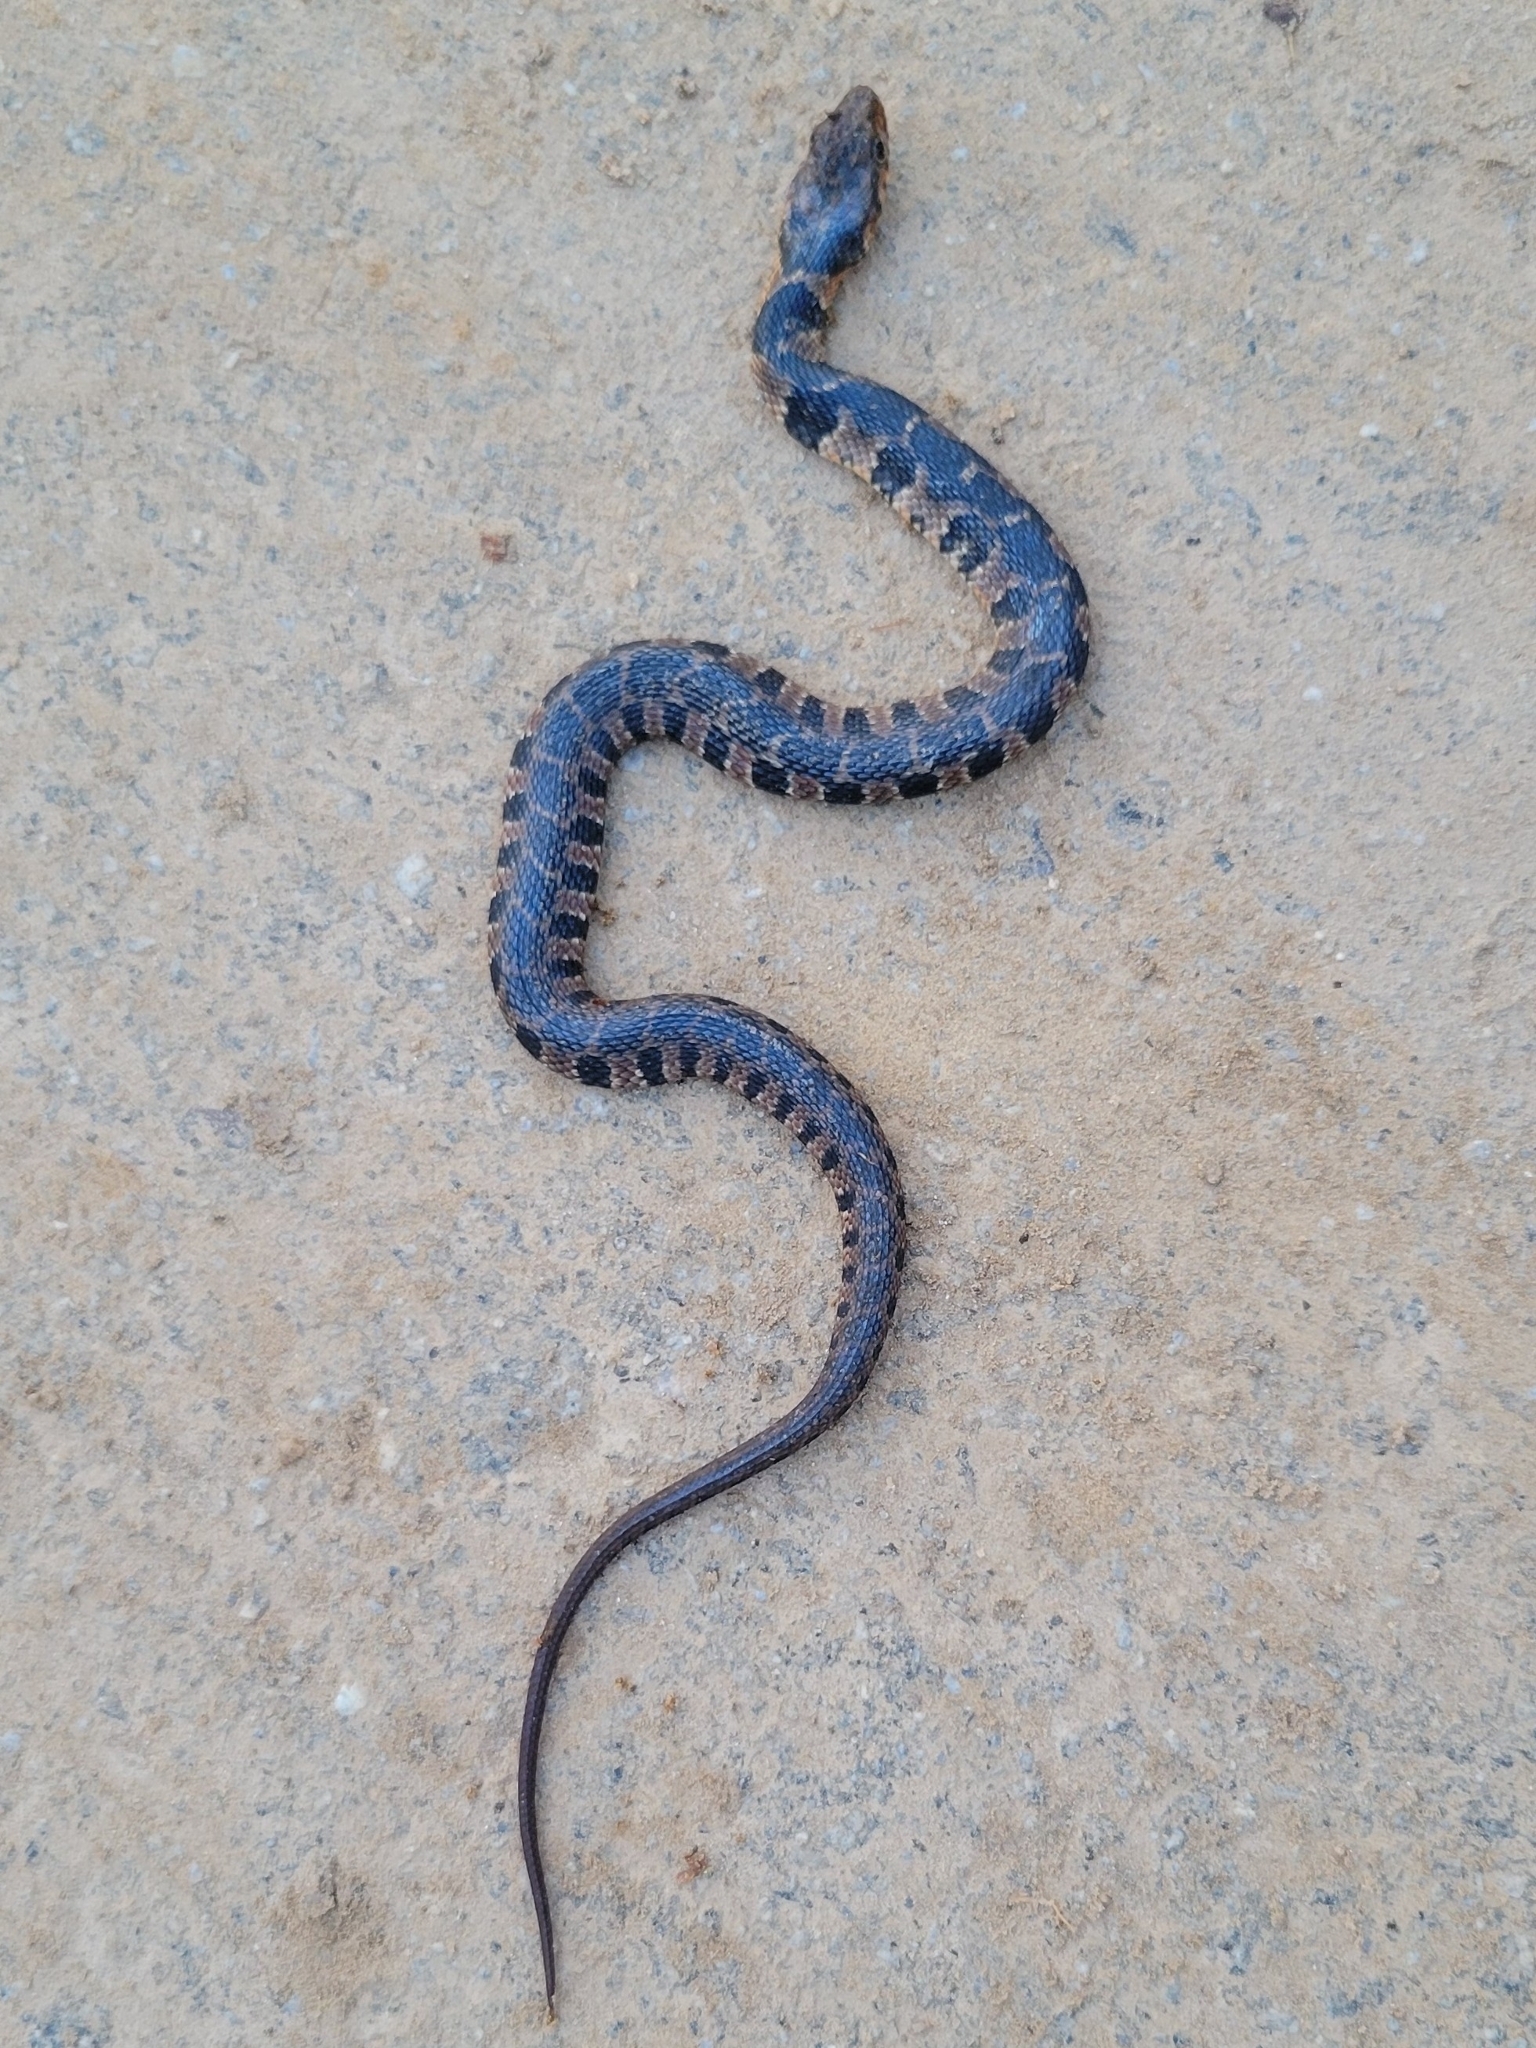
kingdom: Animalia
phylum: Chordata
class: Squamata
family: Colubridae
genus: Nerodia
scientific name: Nerodia erythrogaster
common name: Plainbelly water snake
